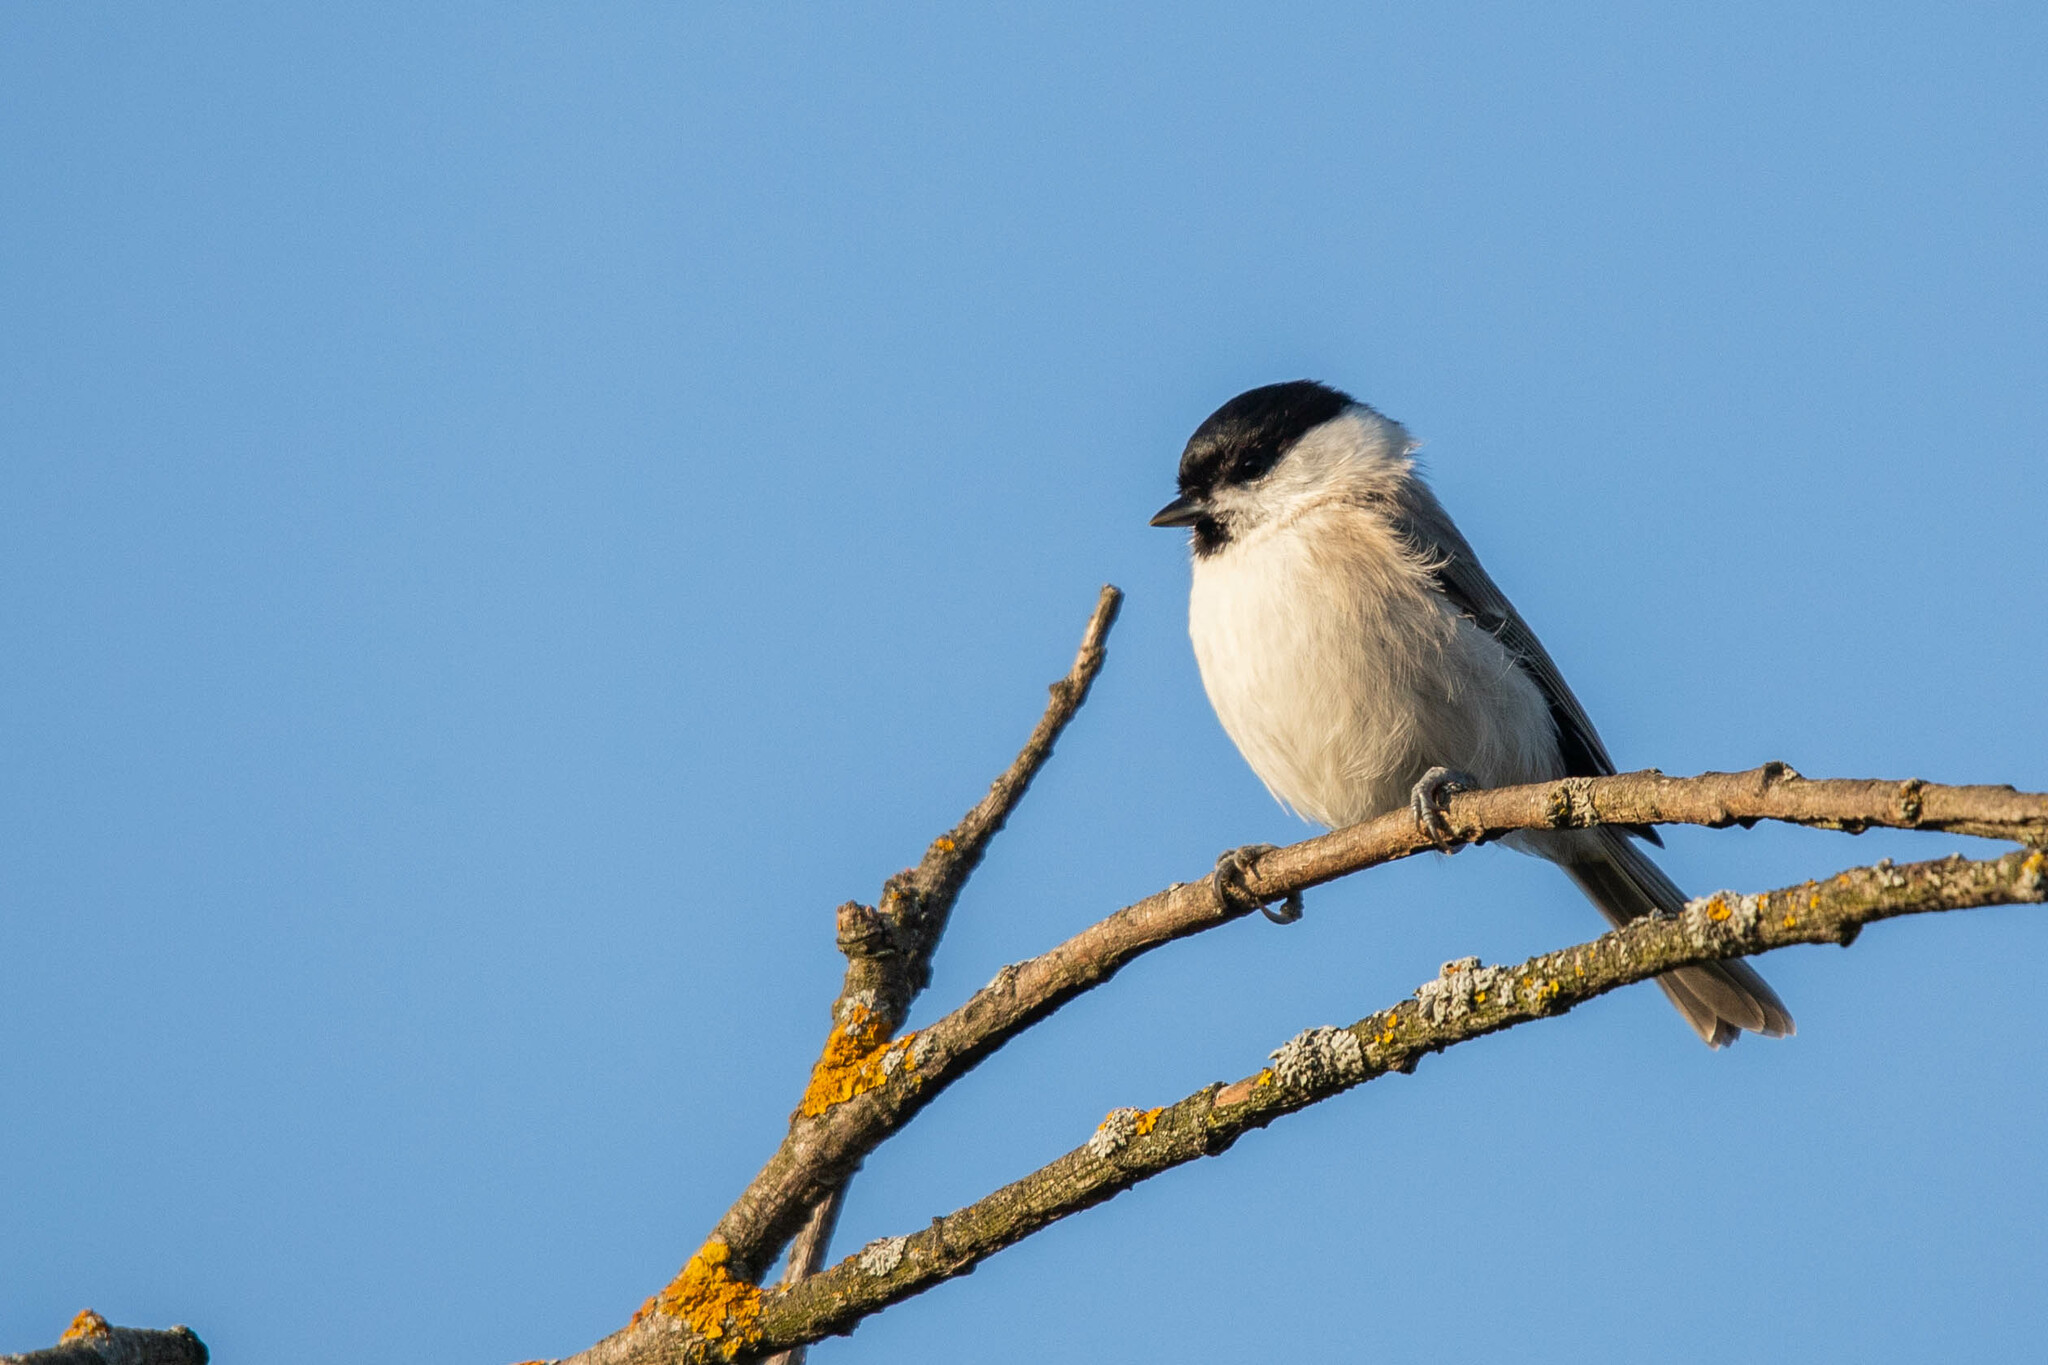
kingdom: Animalia
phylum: Chordata
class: Aves
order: Passeriformes
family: Paridae
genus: Poecile
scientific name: Poecile palustris
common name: Marsh tit
